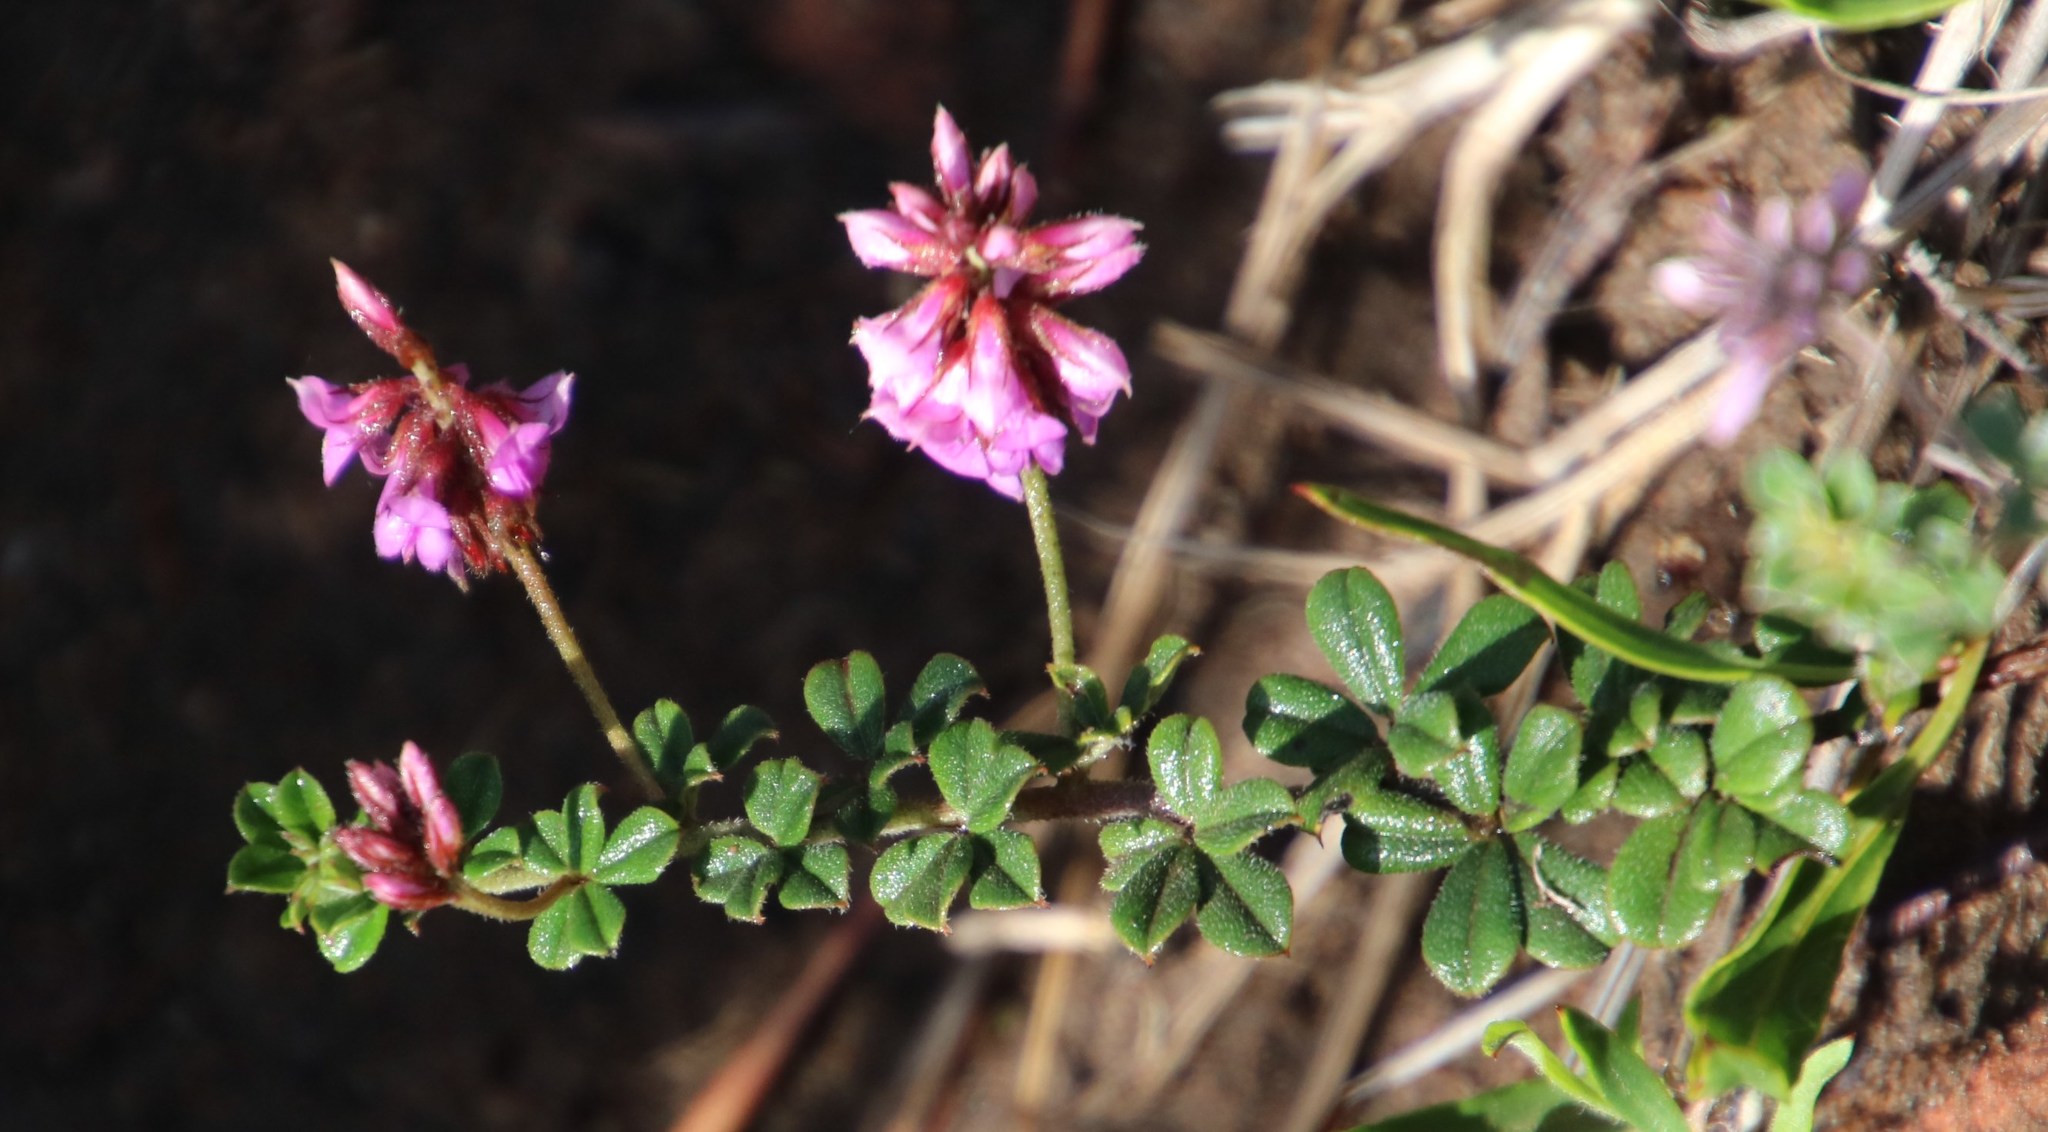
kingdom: Plantae
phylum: Tracheophyta
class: Magnoliopsida
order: Fabales
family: Fabaceae
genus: Indigofera
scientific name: Indigofera mauritanica
